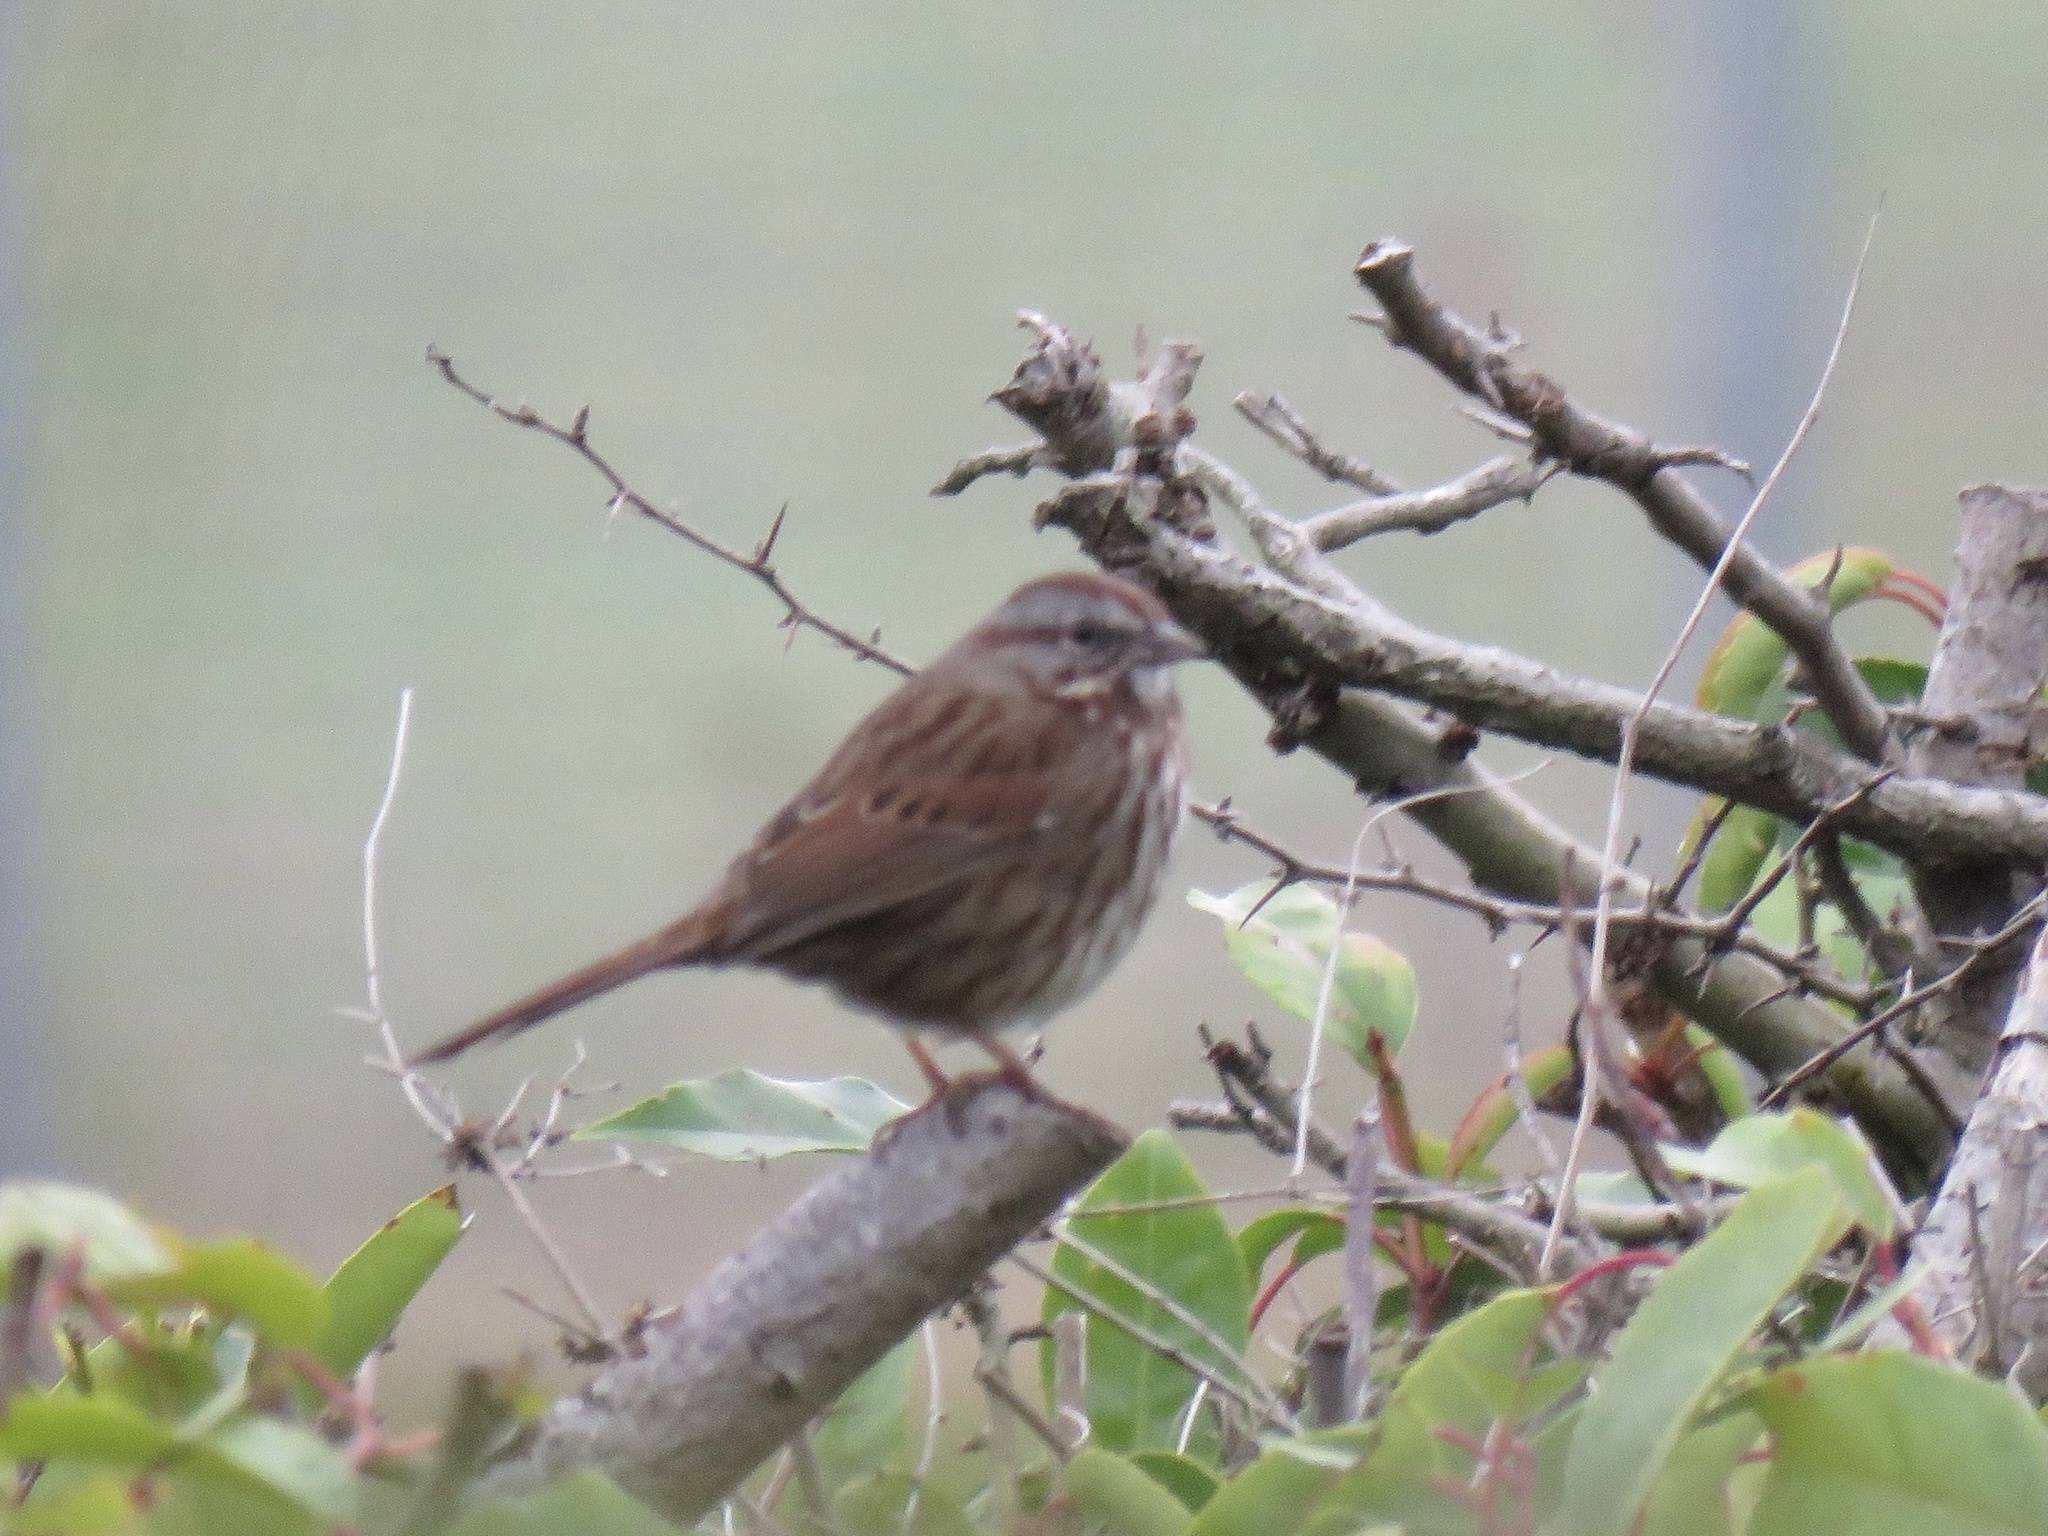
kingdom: Animalia
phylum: Chordata
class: Aves
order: Passeriformes
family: Passerellidae
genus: Melospiza
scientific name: Melospiza melodia
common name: Song sparrow
